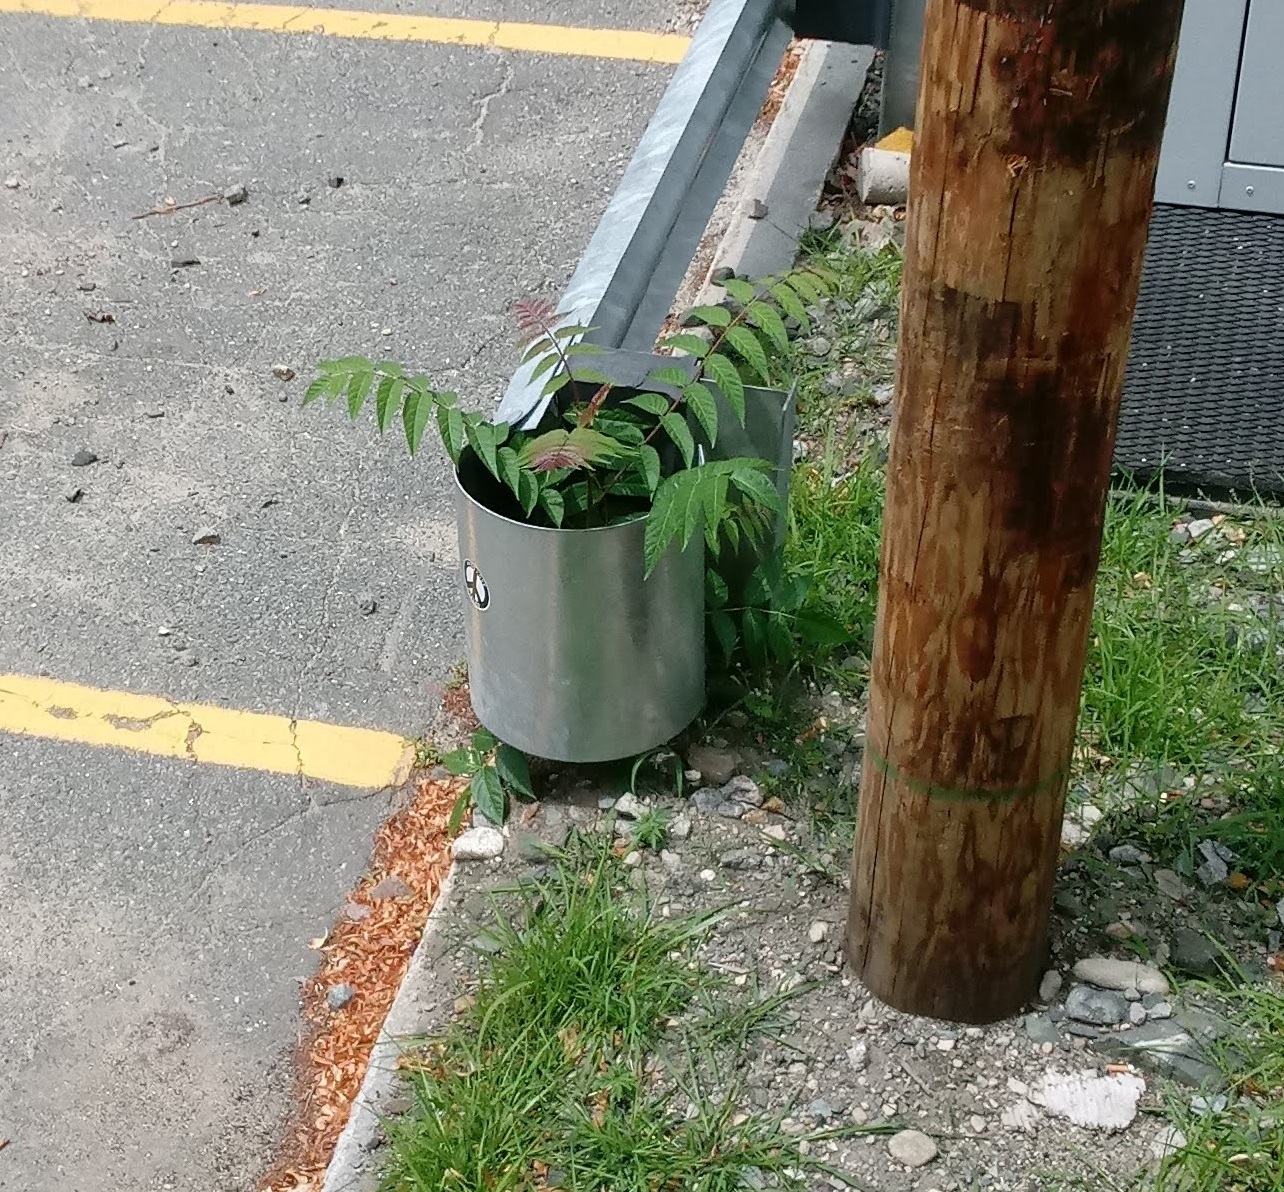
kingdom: Plantae
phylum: Tracheophyta
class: Magnoliopsida
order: Sapindales
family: Simaroubaceae
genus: Ailanthus
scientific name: Ailanthus altissima
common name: Tree-of-heaven
